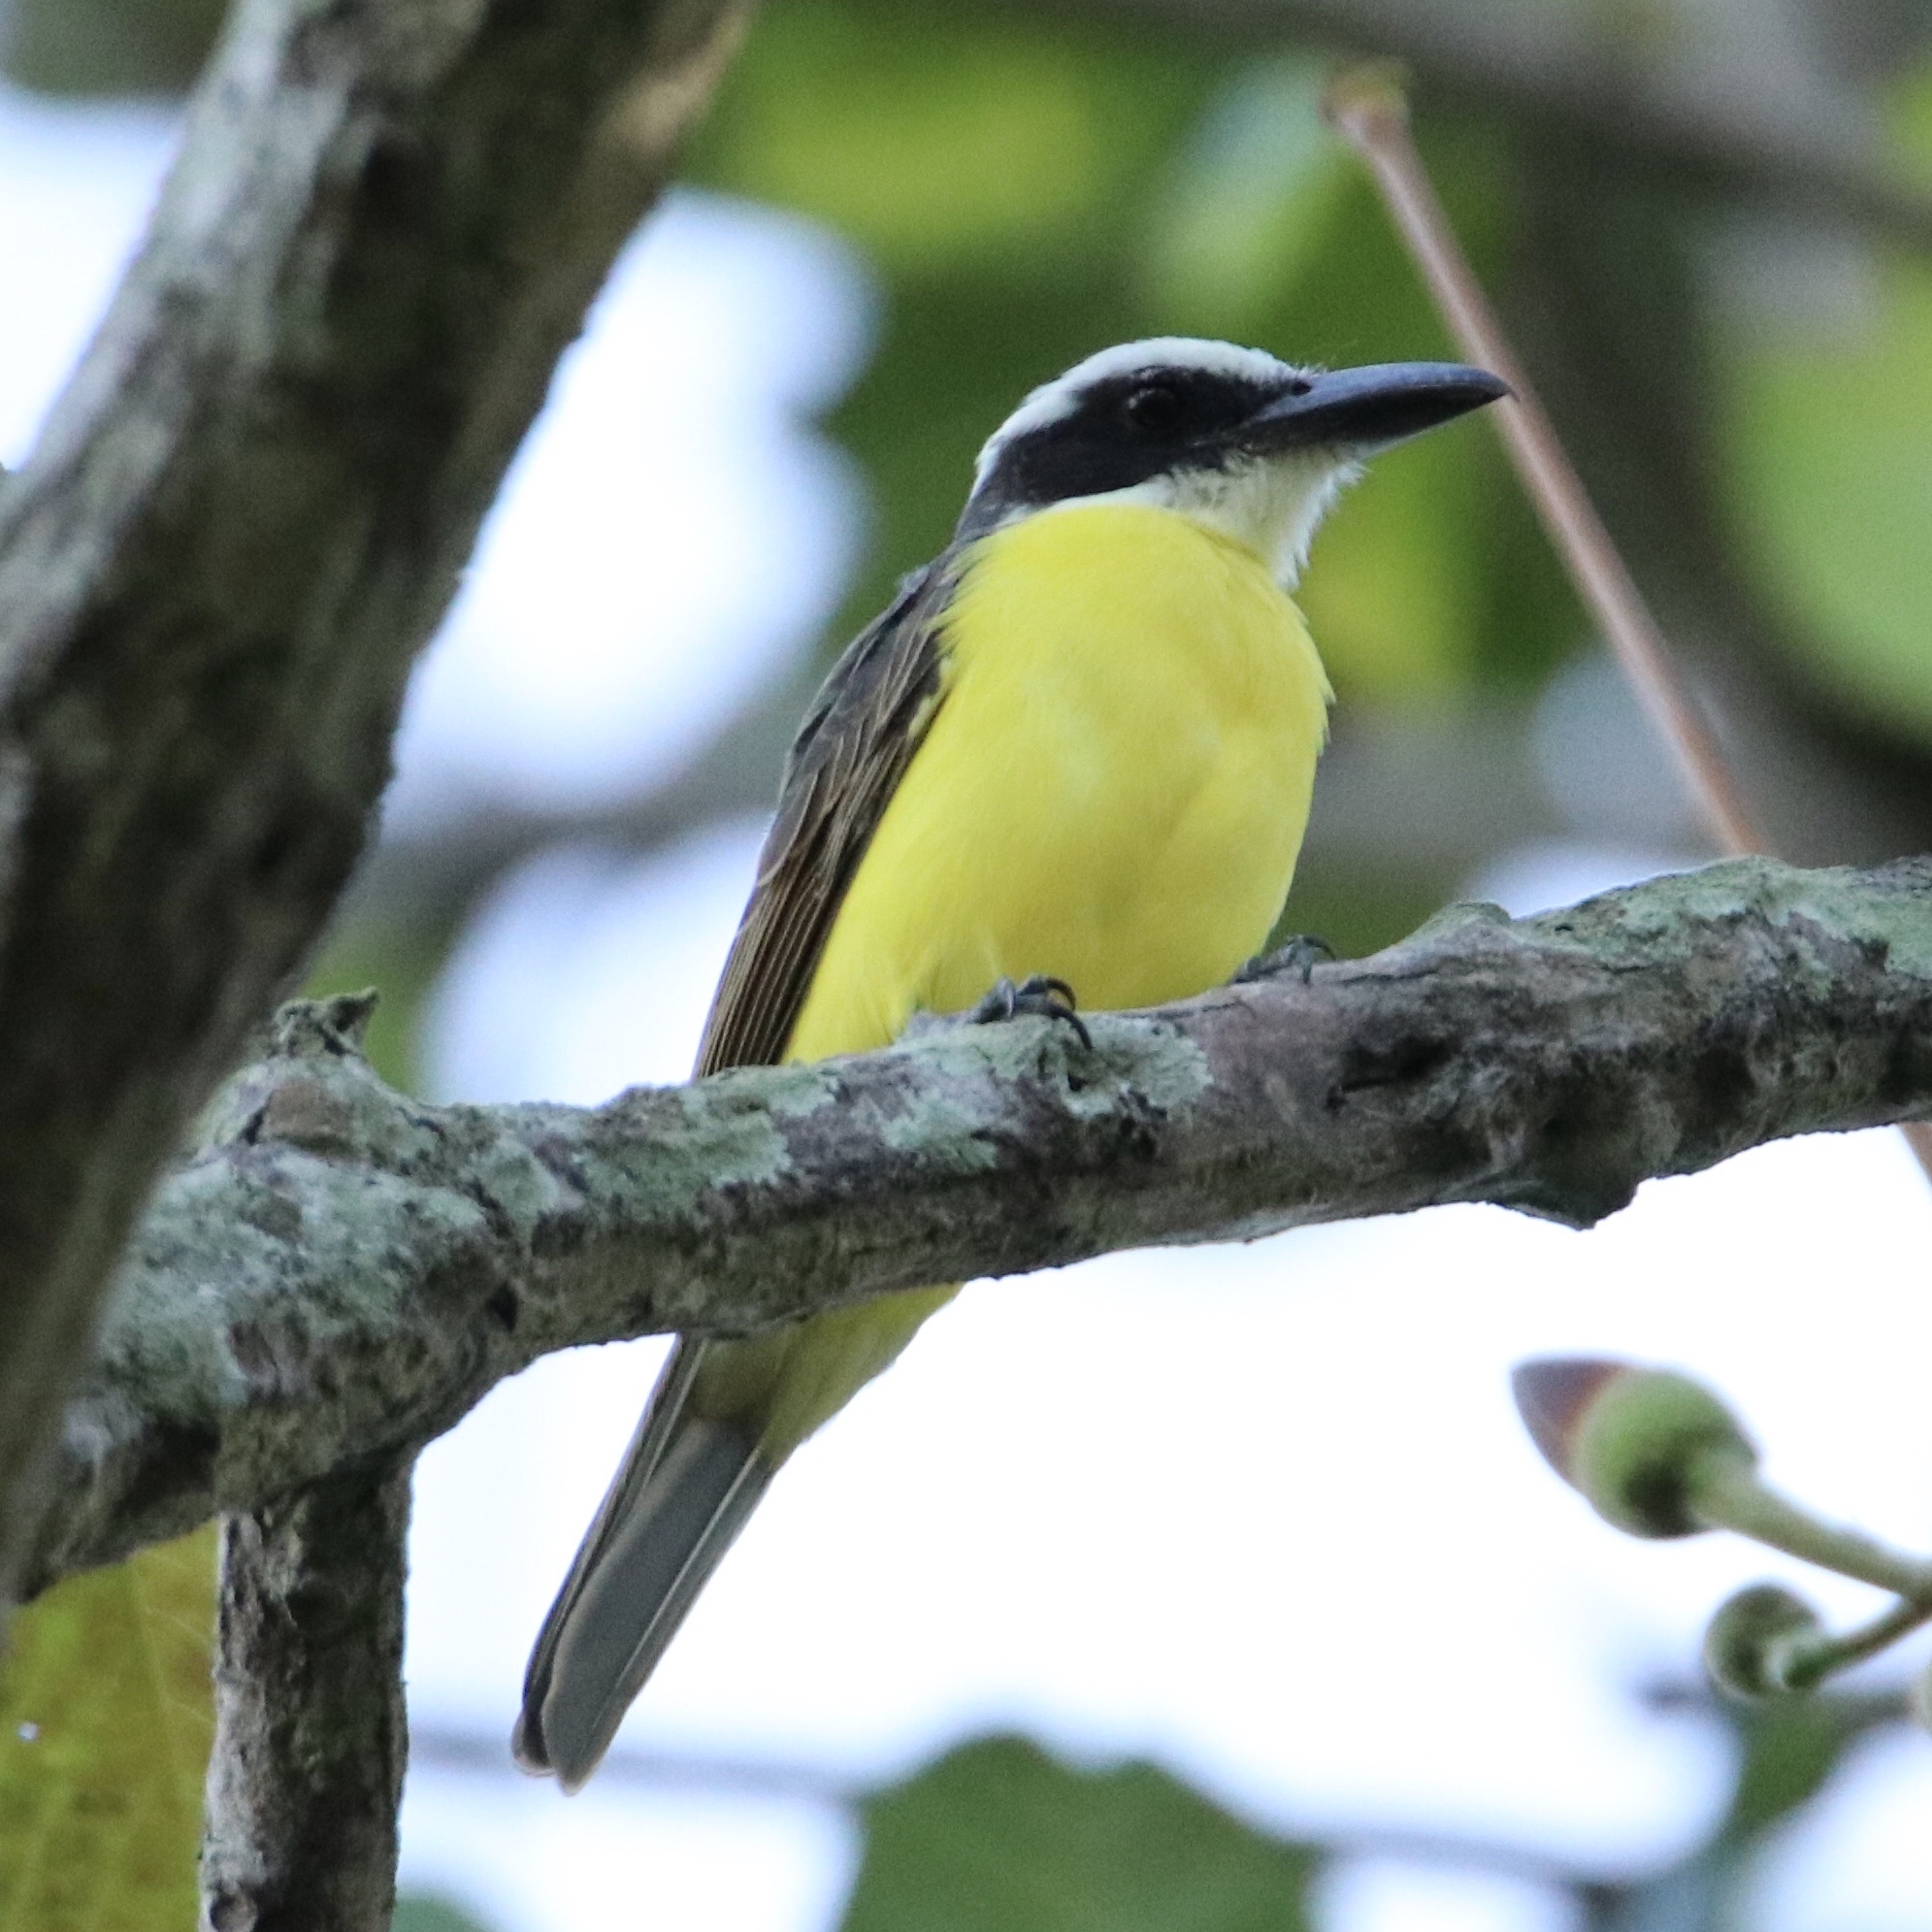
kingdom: Animalia
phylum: Chordata
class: Aves
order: Passeriformes
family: Tyrannidae
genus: Megarynchus
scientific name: Megarynchus pitangua
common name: Boat-billed flycatcher
